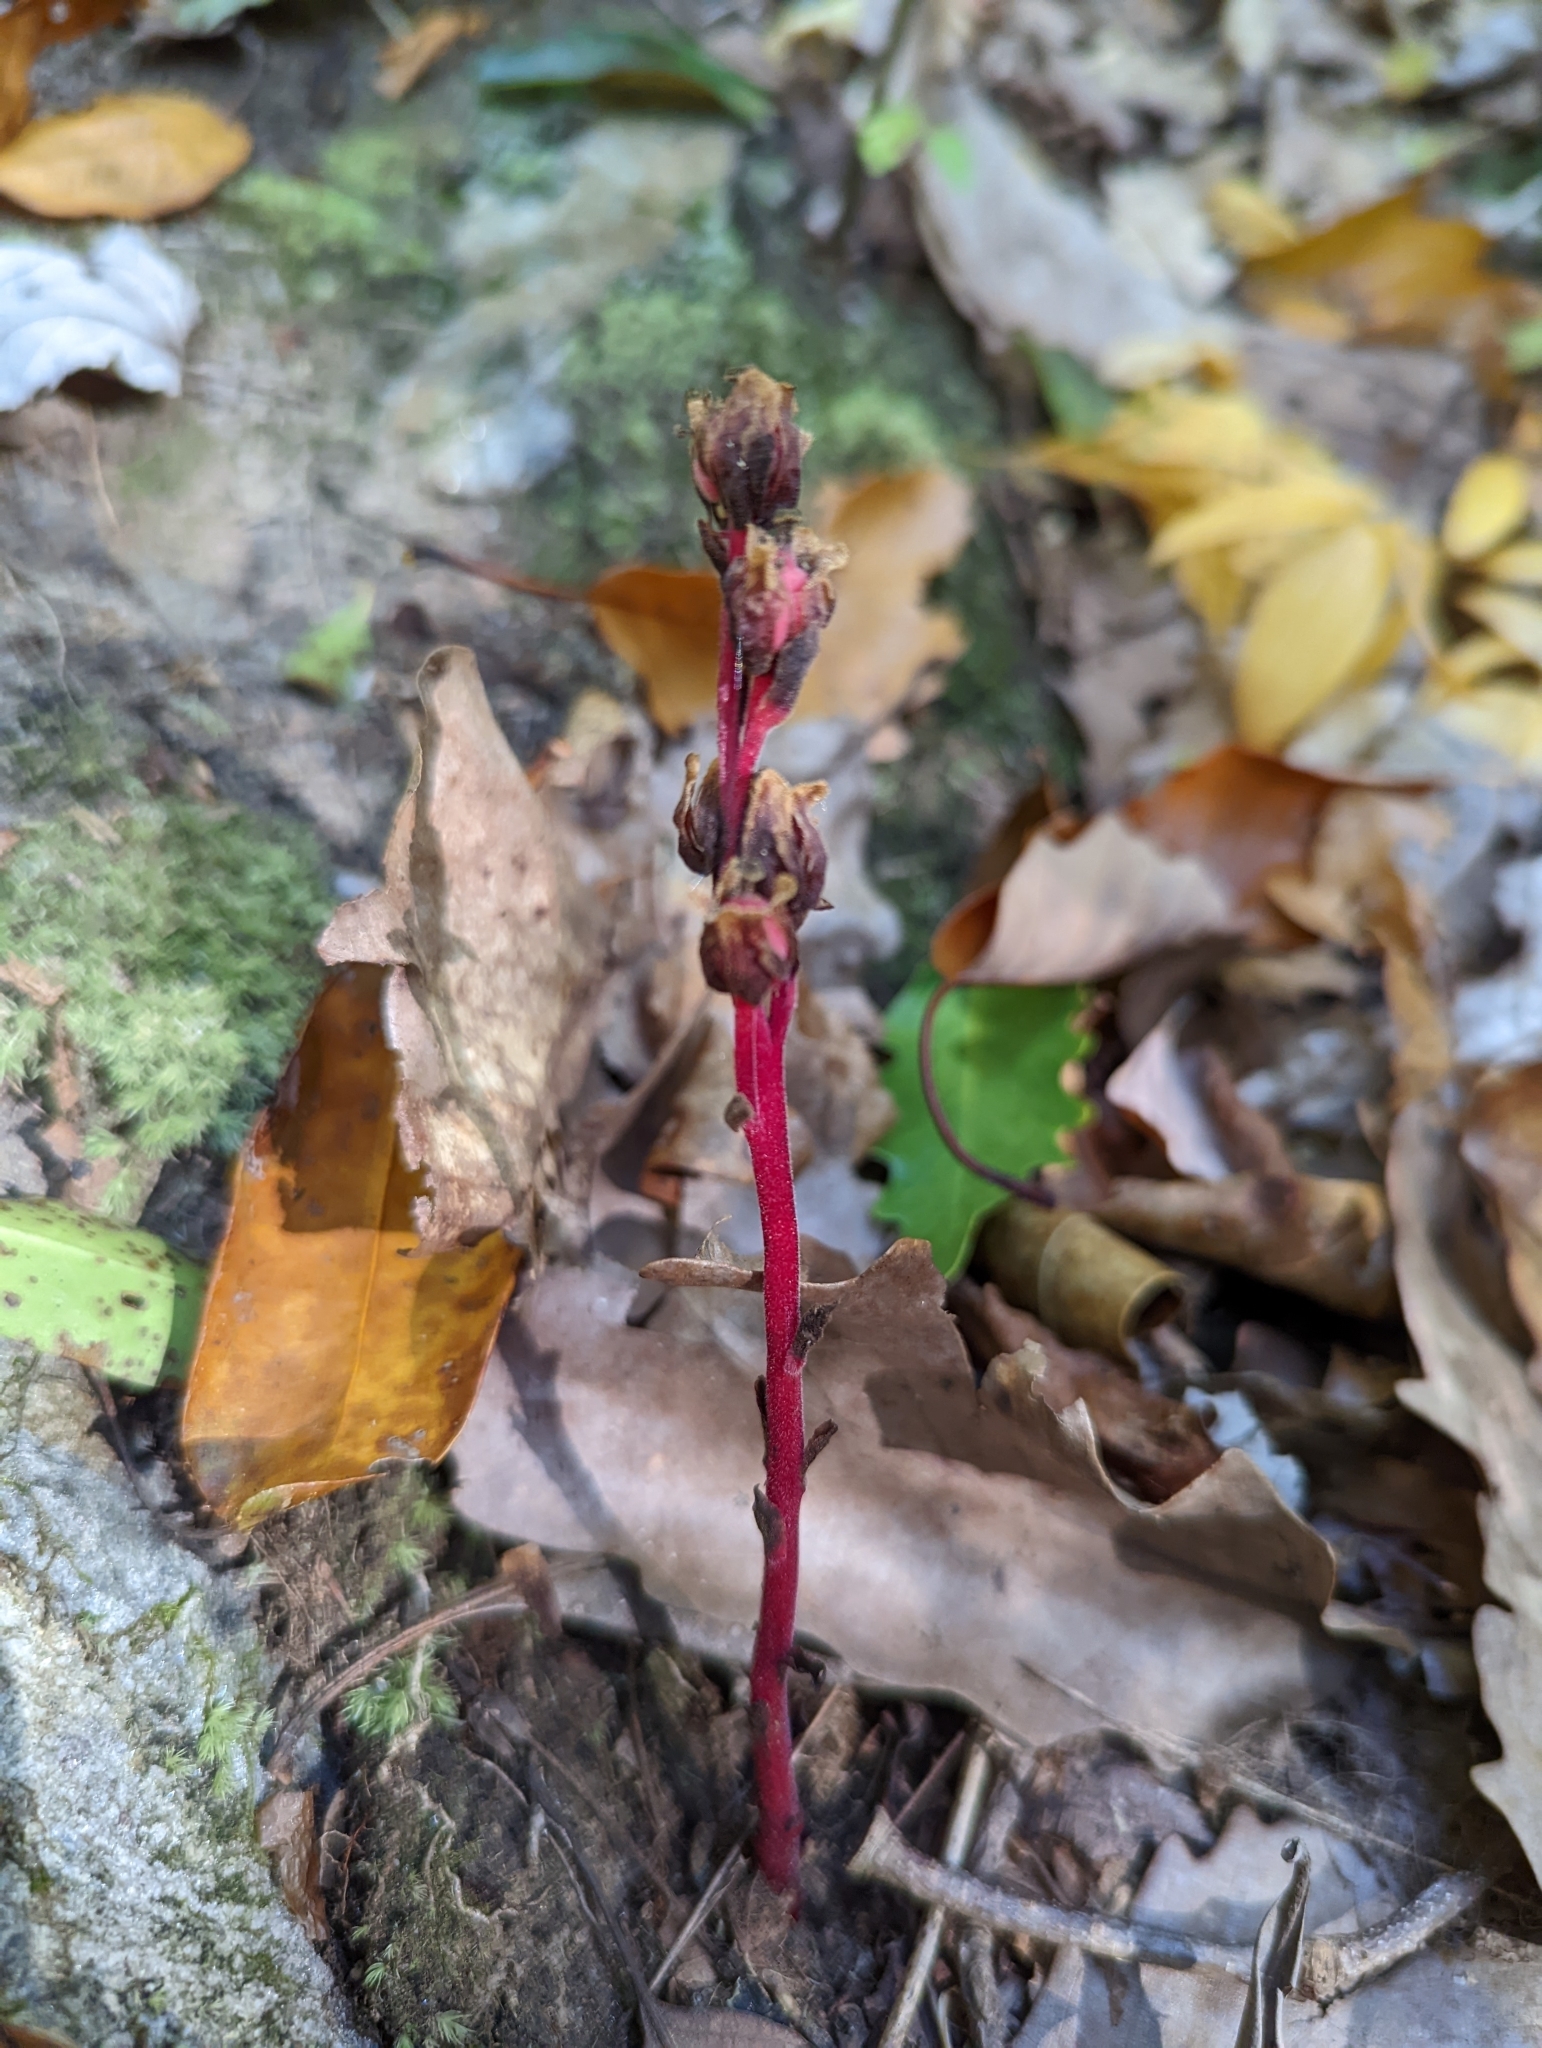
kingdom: Plantae
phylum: Tracheophyta
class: Magnoliopsida
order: Ericales
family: Ericaceae
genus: Hypopitys
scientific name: Hypopitys monotropa
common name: Yellow bird's-nest
